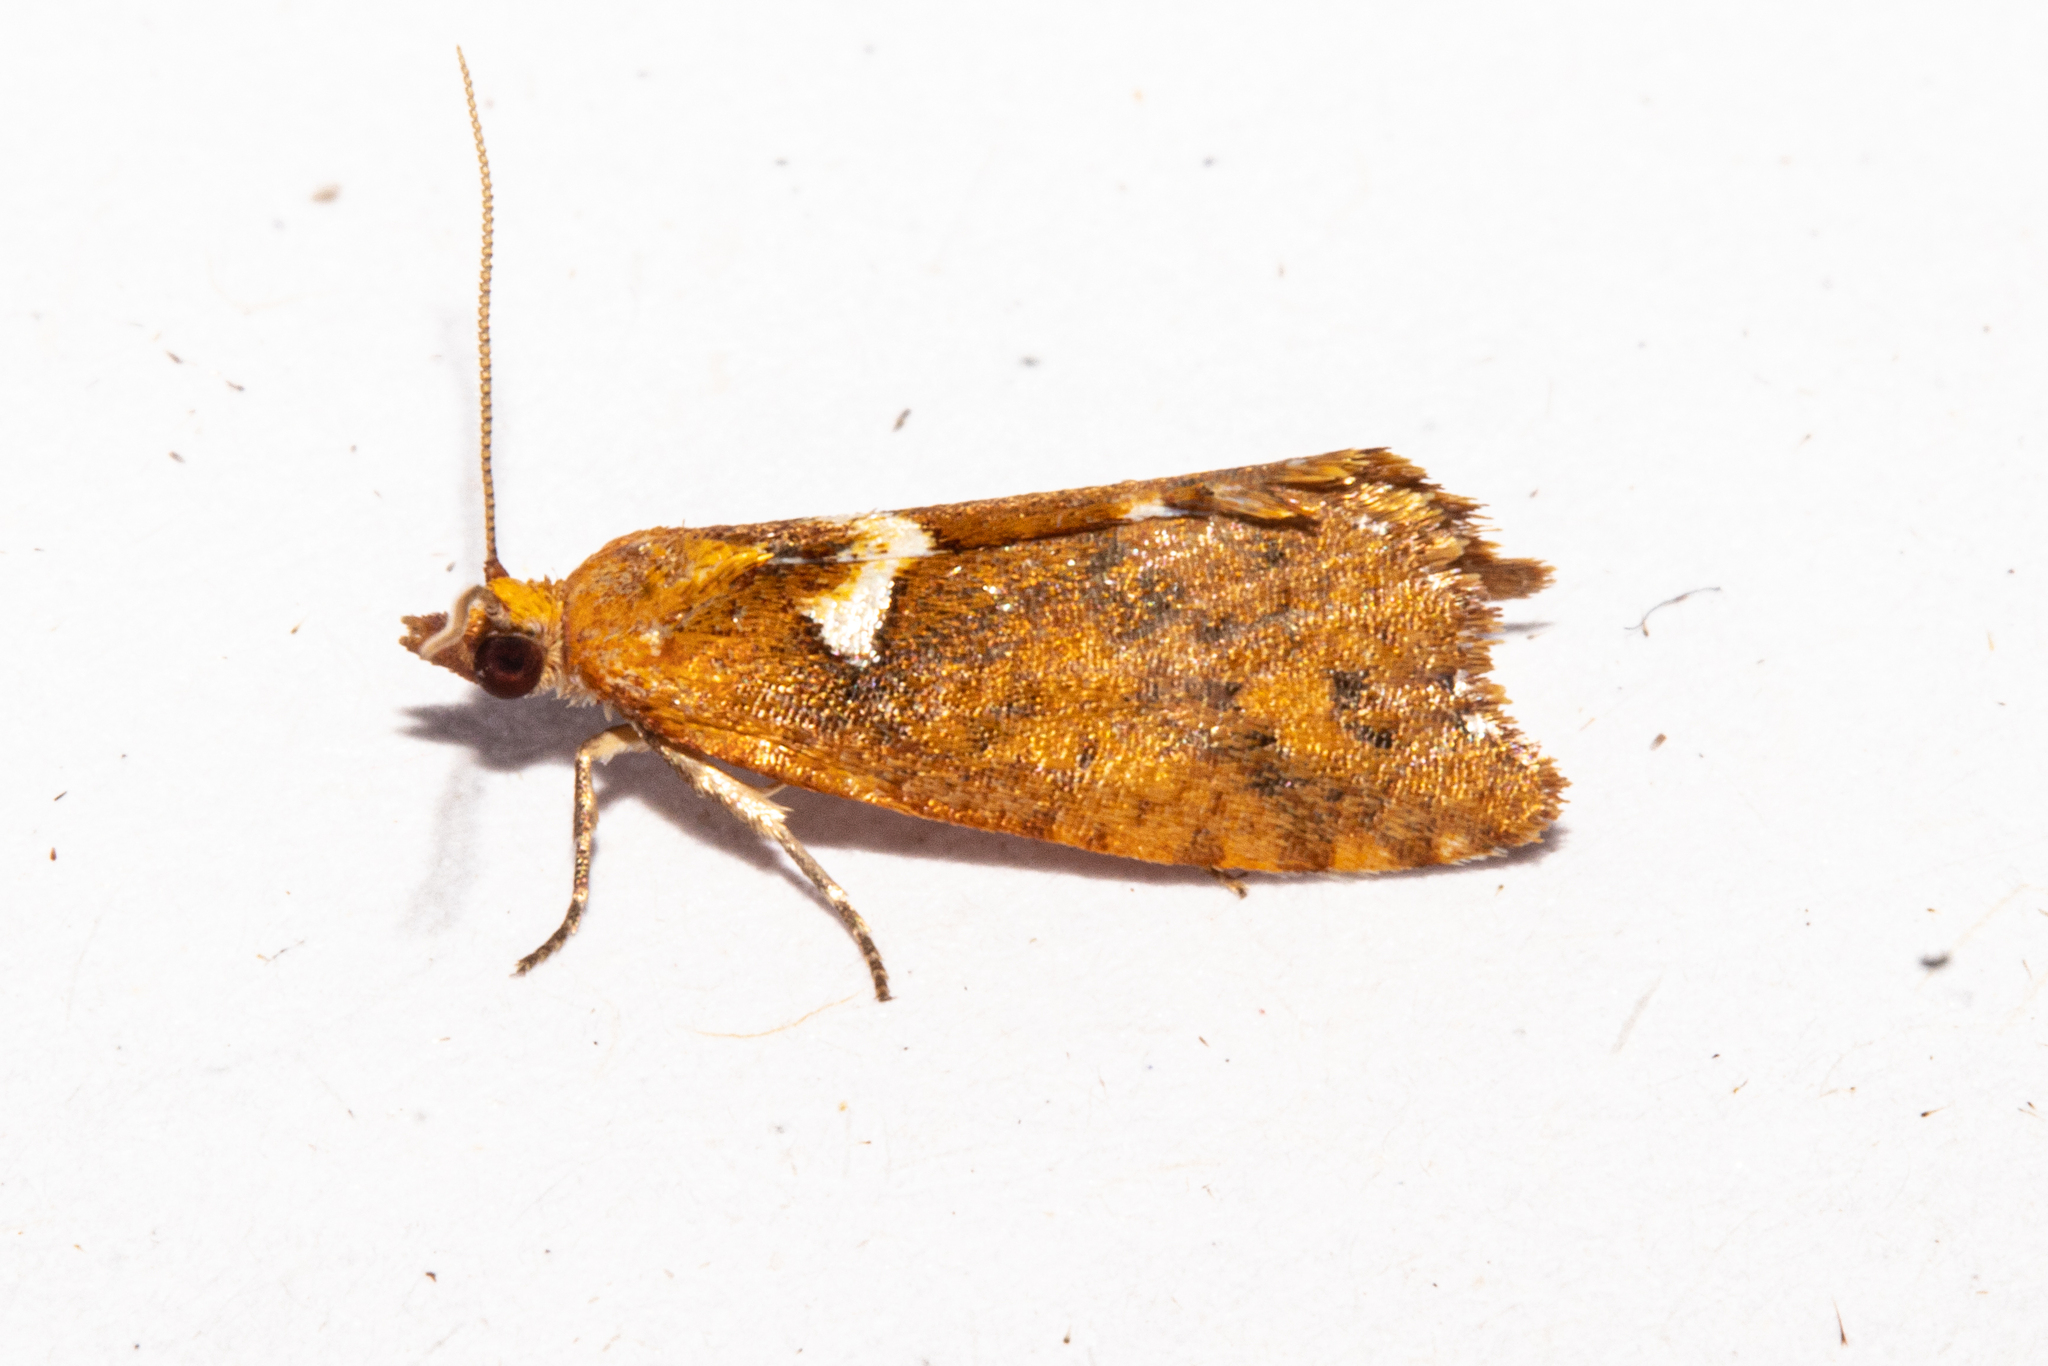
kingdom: Animalia
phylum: Arthropoda
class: Insecta
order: Lepidoptera
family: Tortricidae
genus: Pyrgotis
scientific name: Pyrgotis pyramidias
